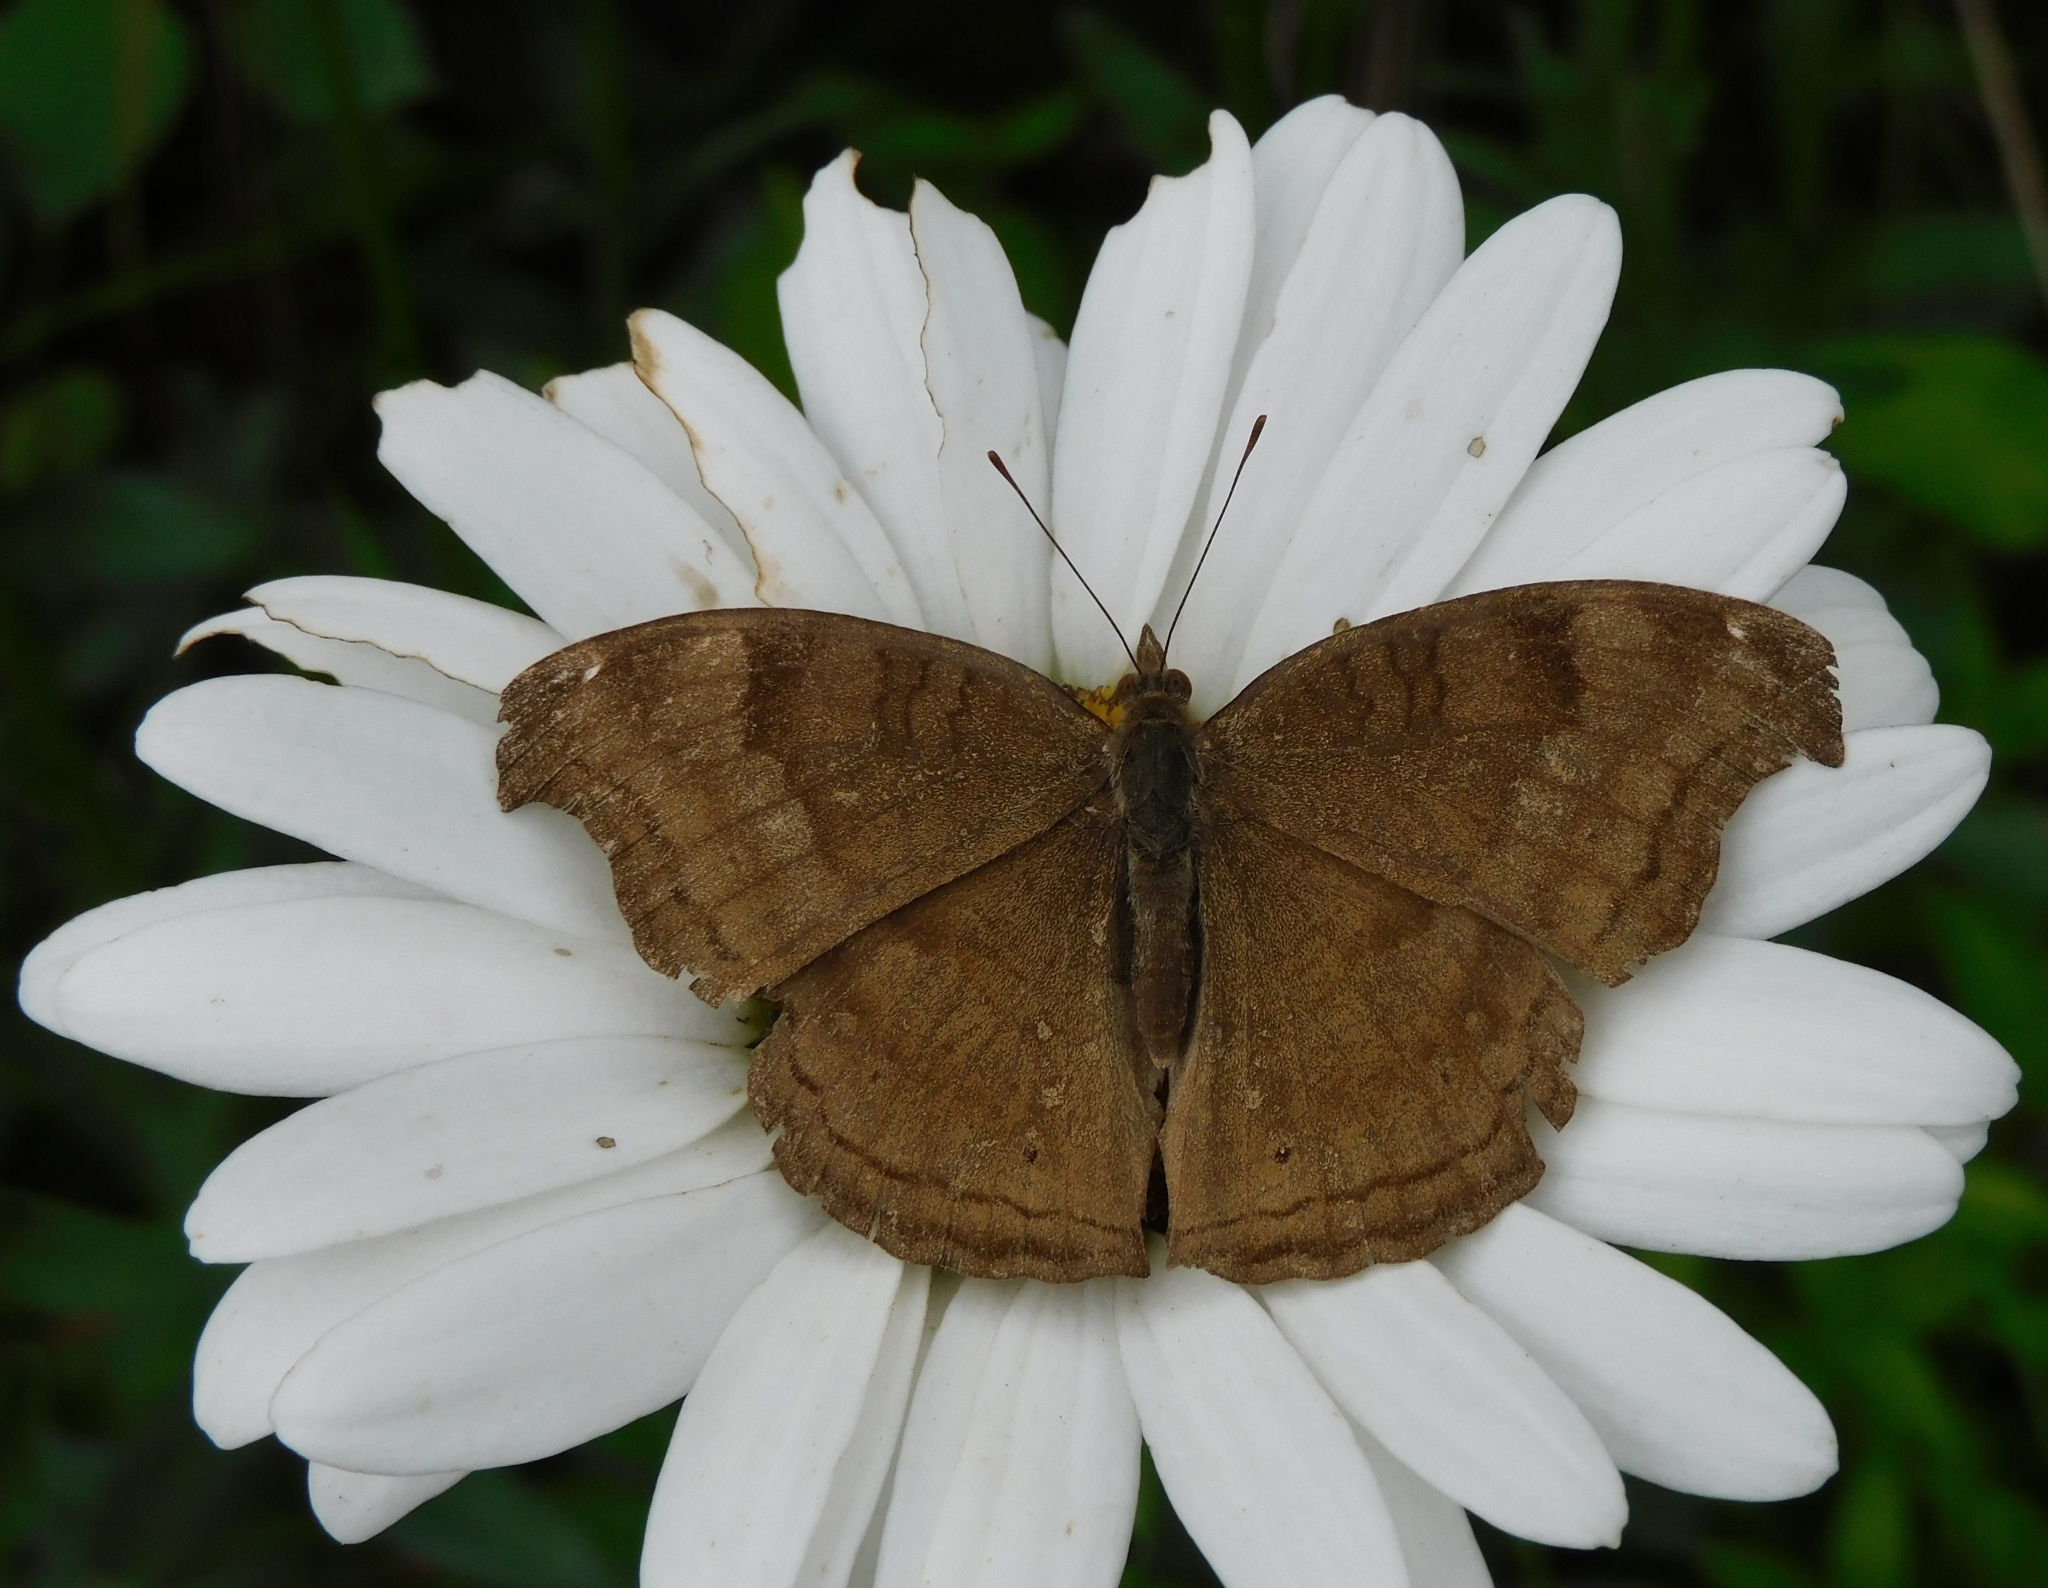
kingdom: Animalia
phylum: Arthropoda
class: Insecta
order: Lepidoptera
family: Nymphalidae
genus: Junonia
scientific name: Junonia iphita
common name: Chocolate pansy
